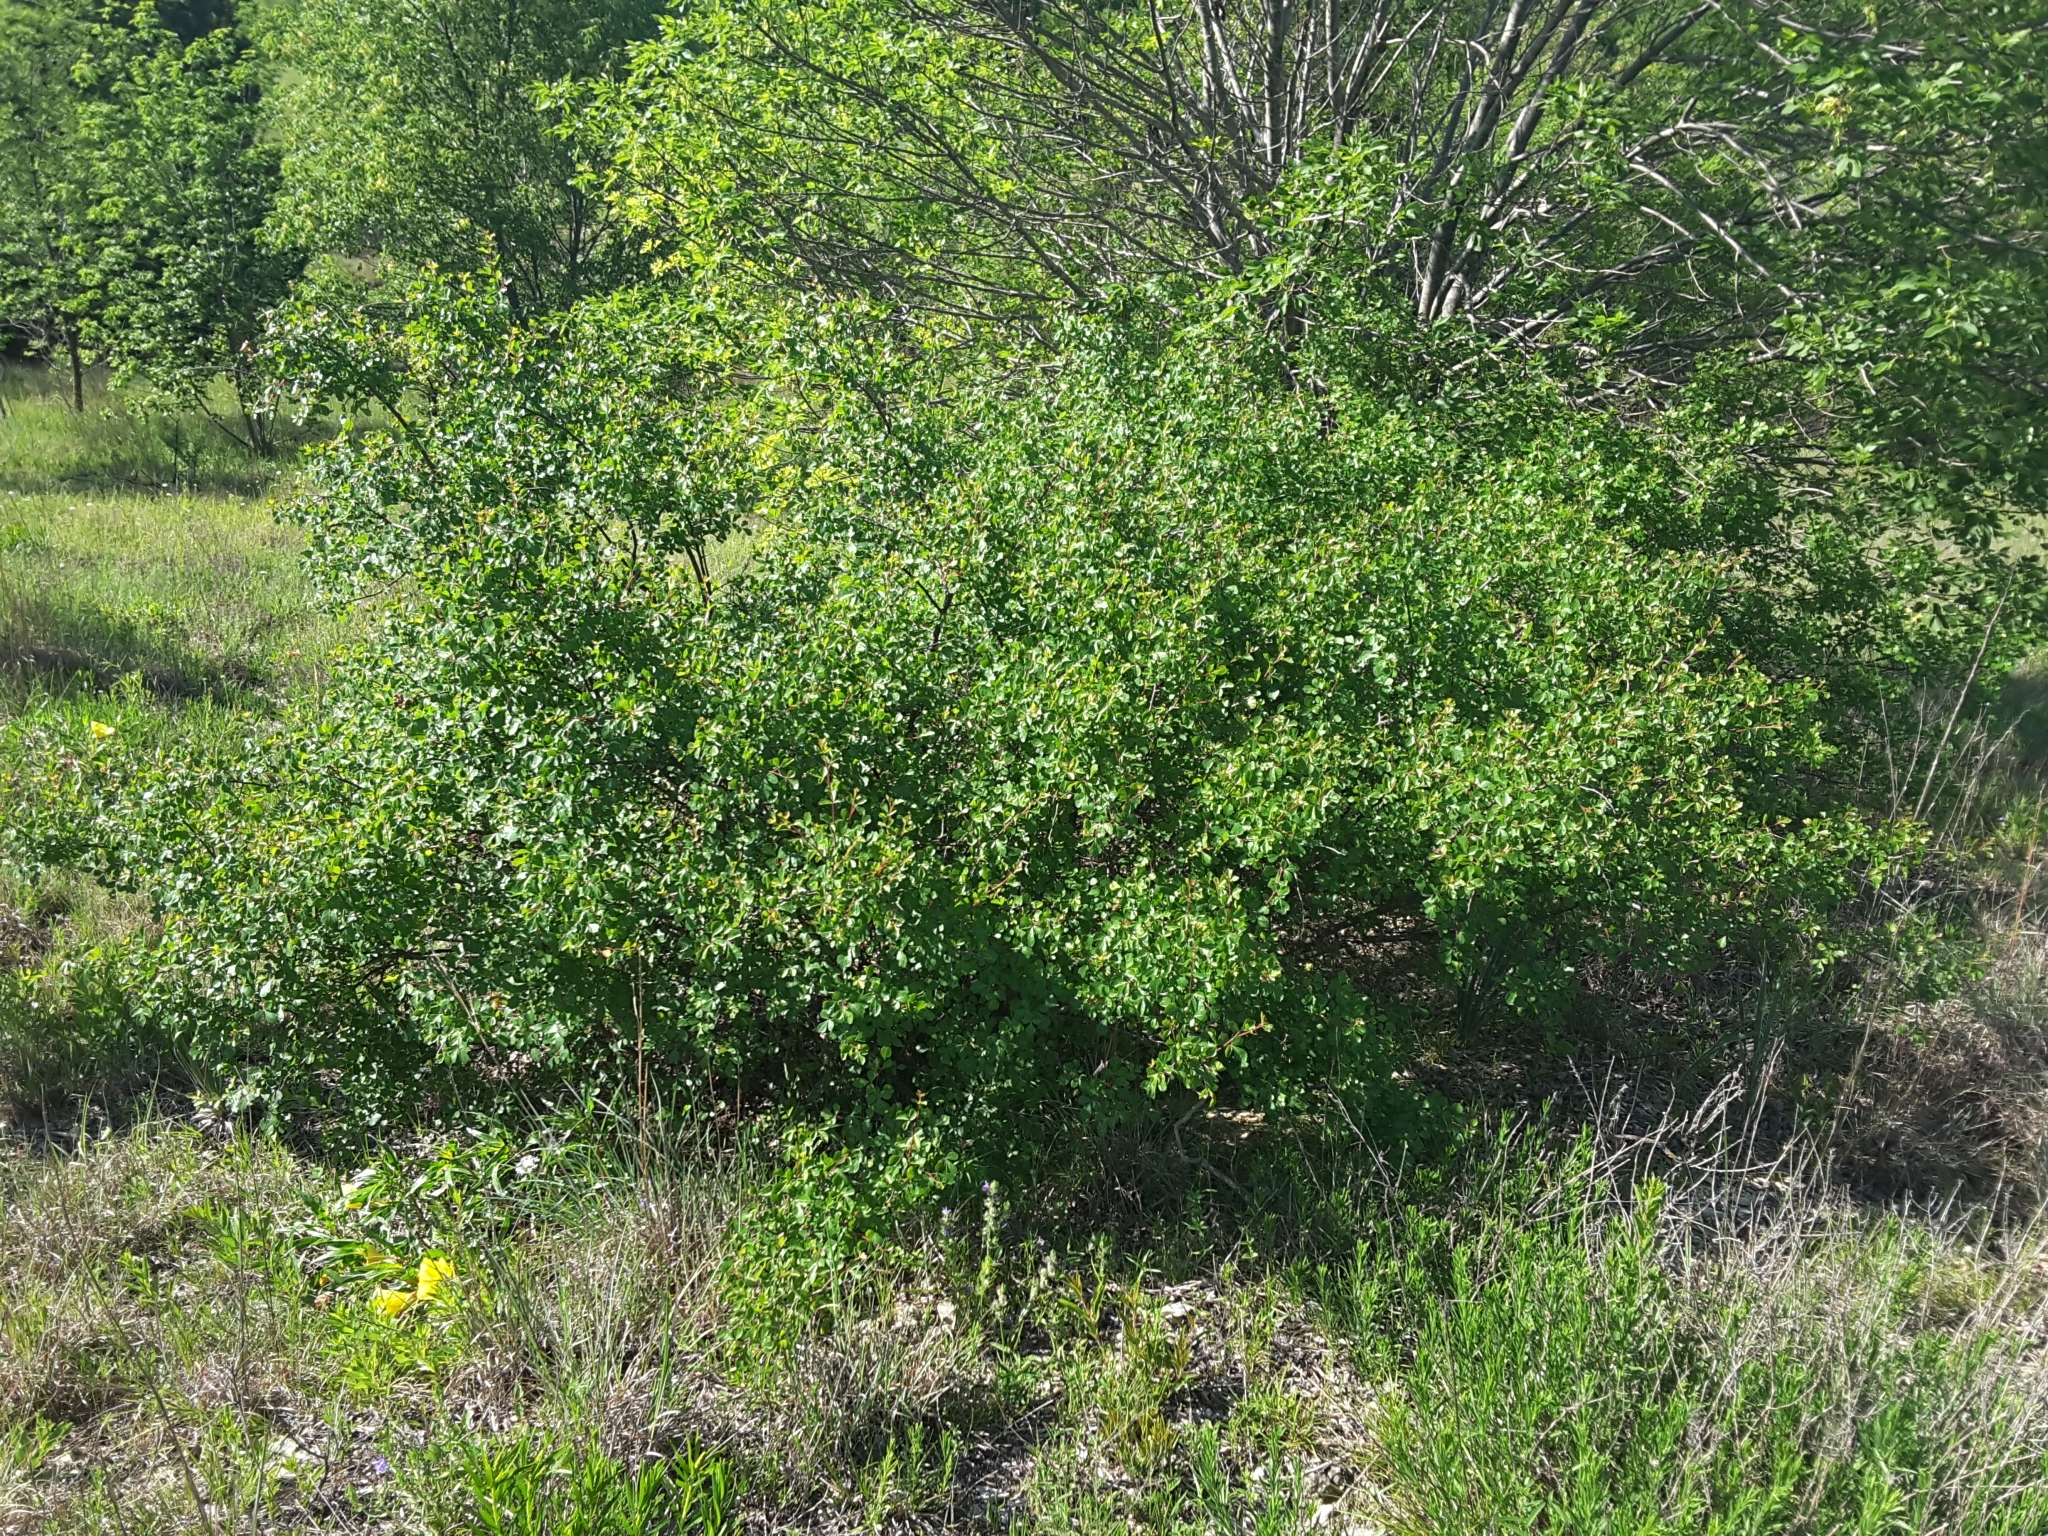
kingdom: Plantae
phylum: Tracheophyta
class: Magnoliopsida
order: Sapindales
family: Anacardiaceae
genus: Rhus
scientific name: Rhus aromatica
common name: Aromatic sumac
